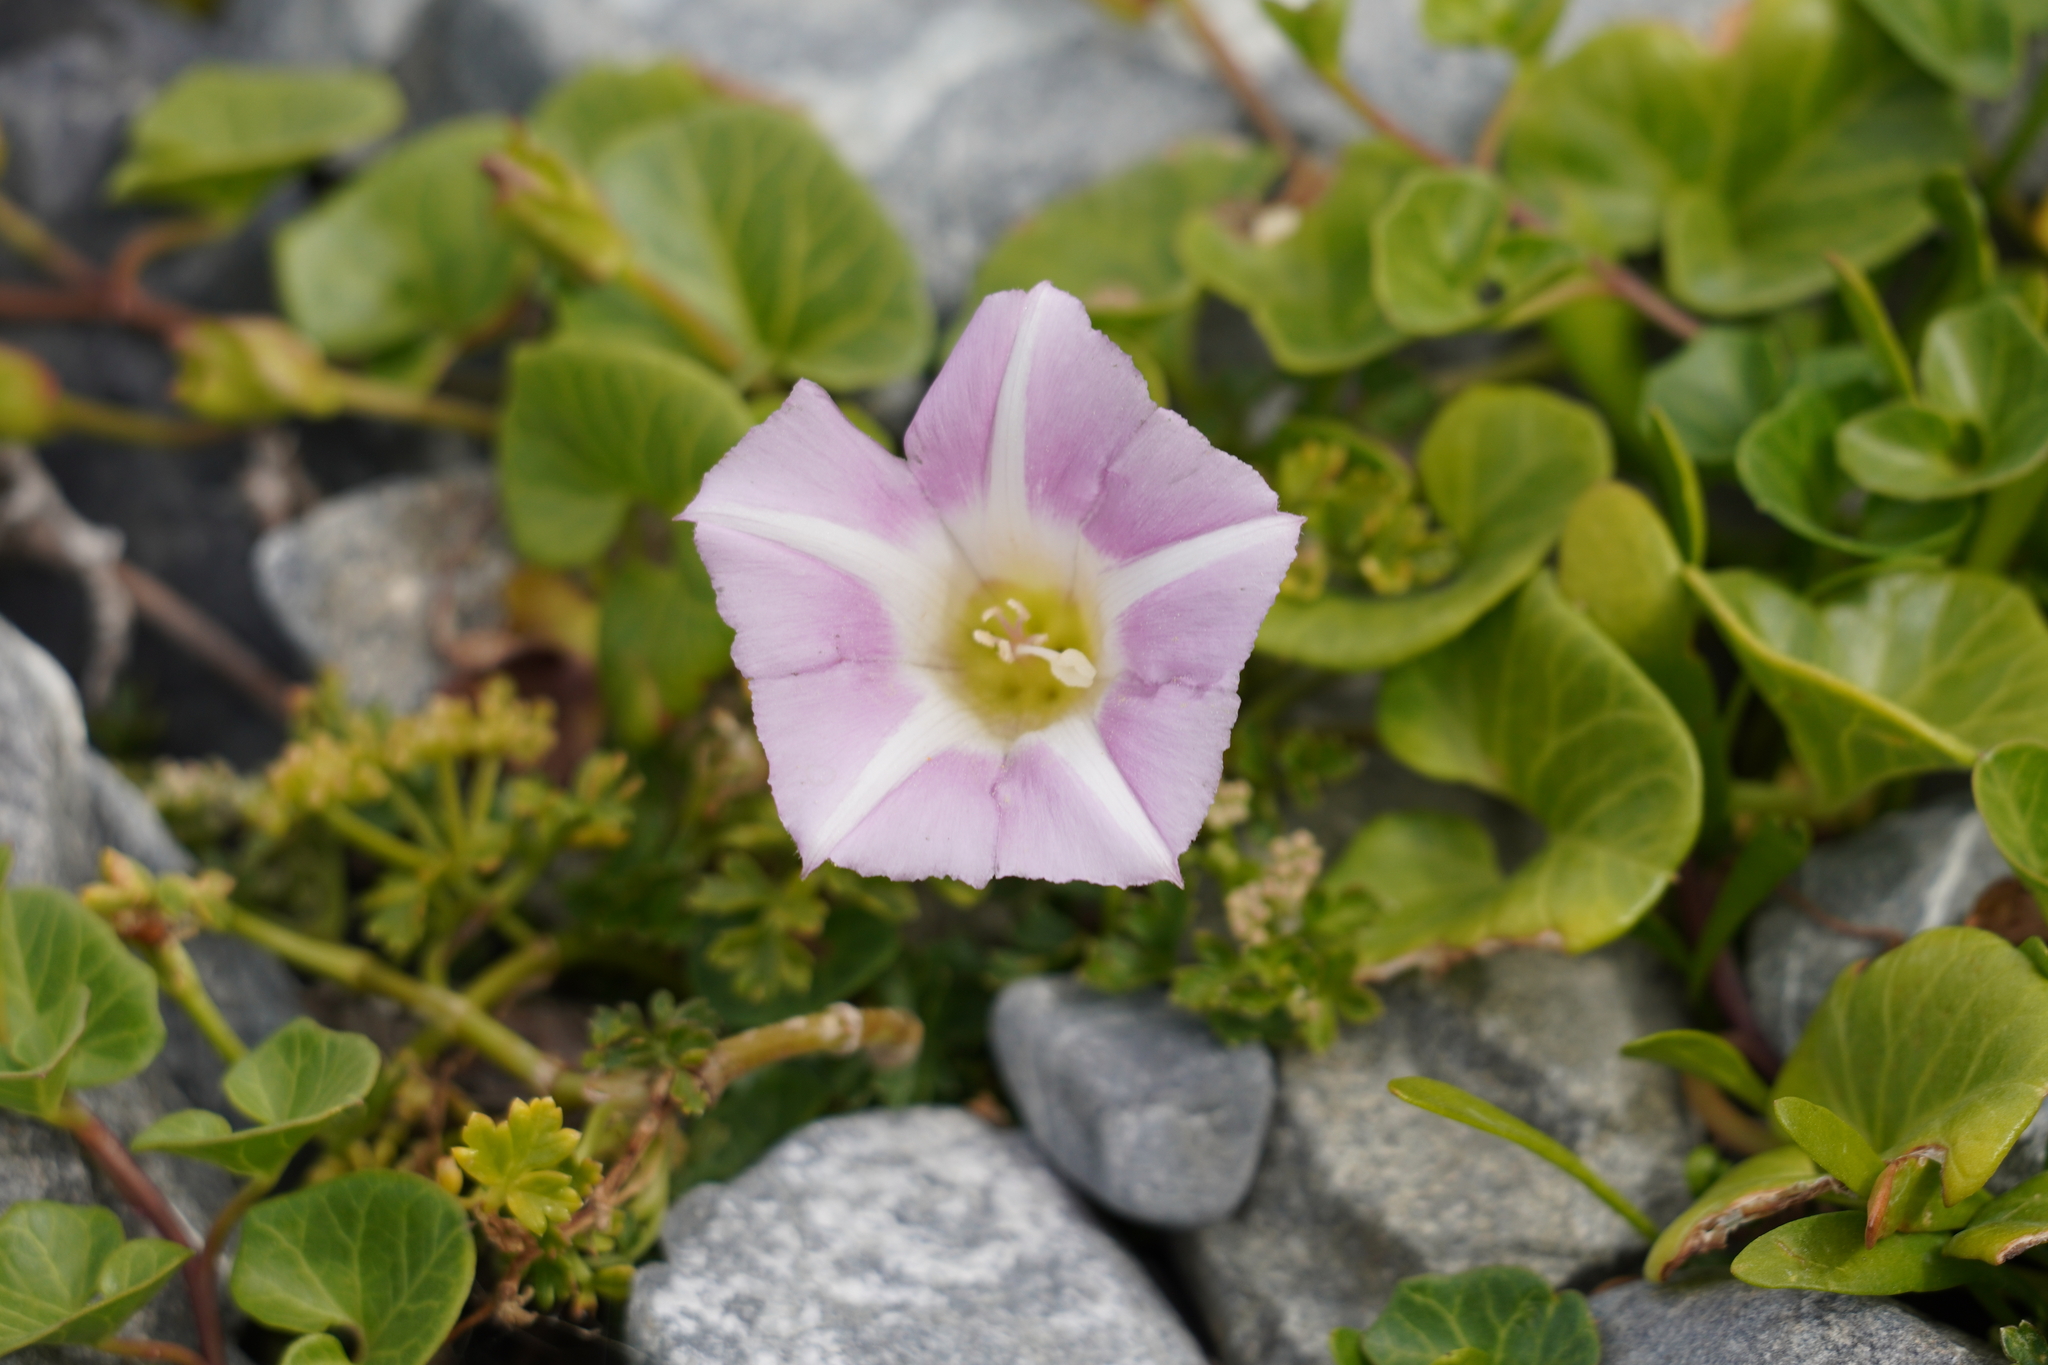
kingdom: Plantae
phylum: Tracheophyta
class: Magnoliopsida
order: Solanales
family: Convolvulaceae
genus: Calystegia
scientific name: Calystegia soldanella
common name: Sea bindweed
